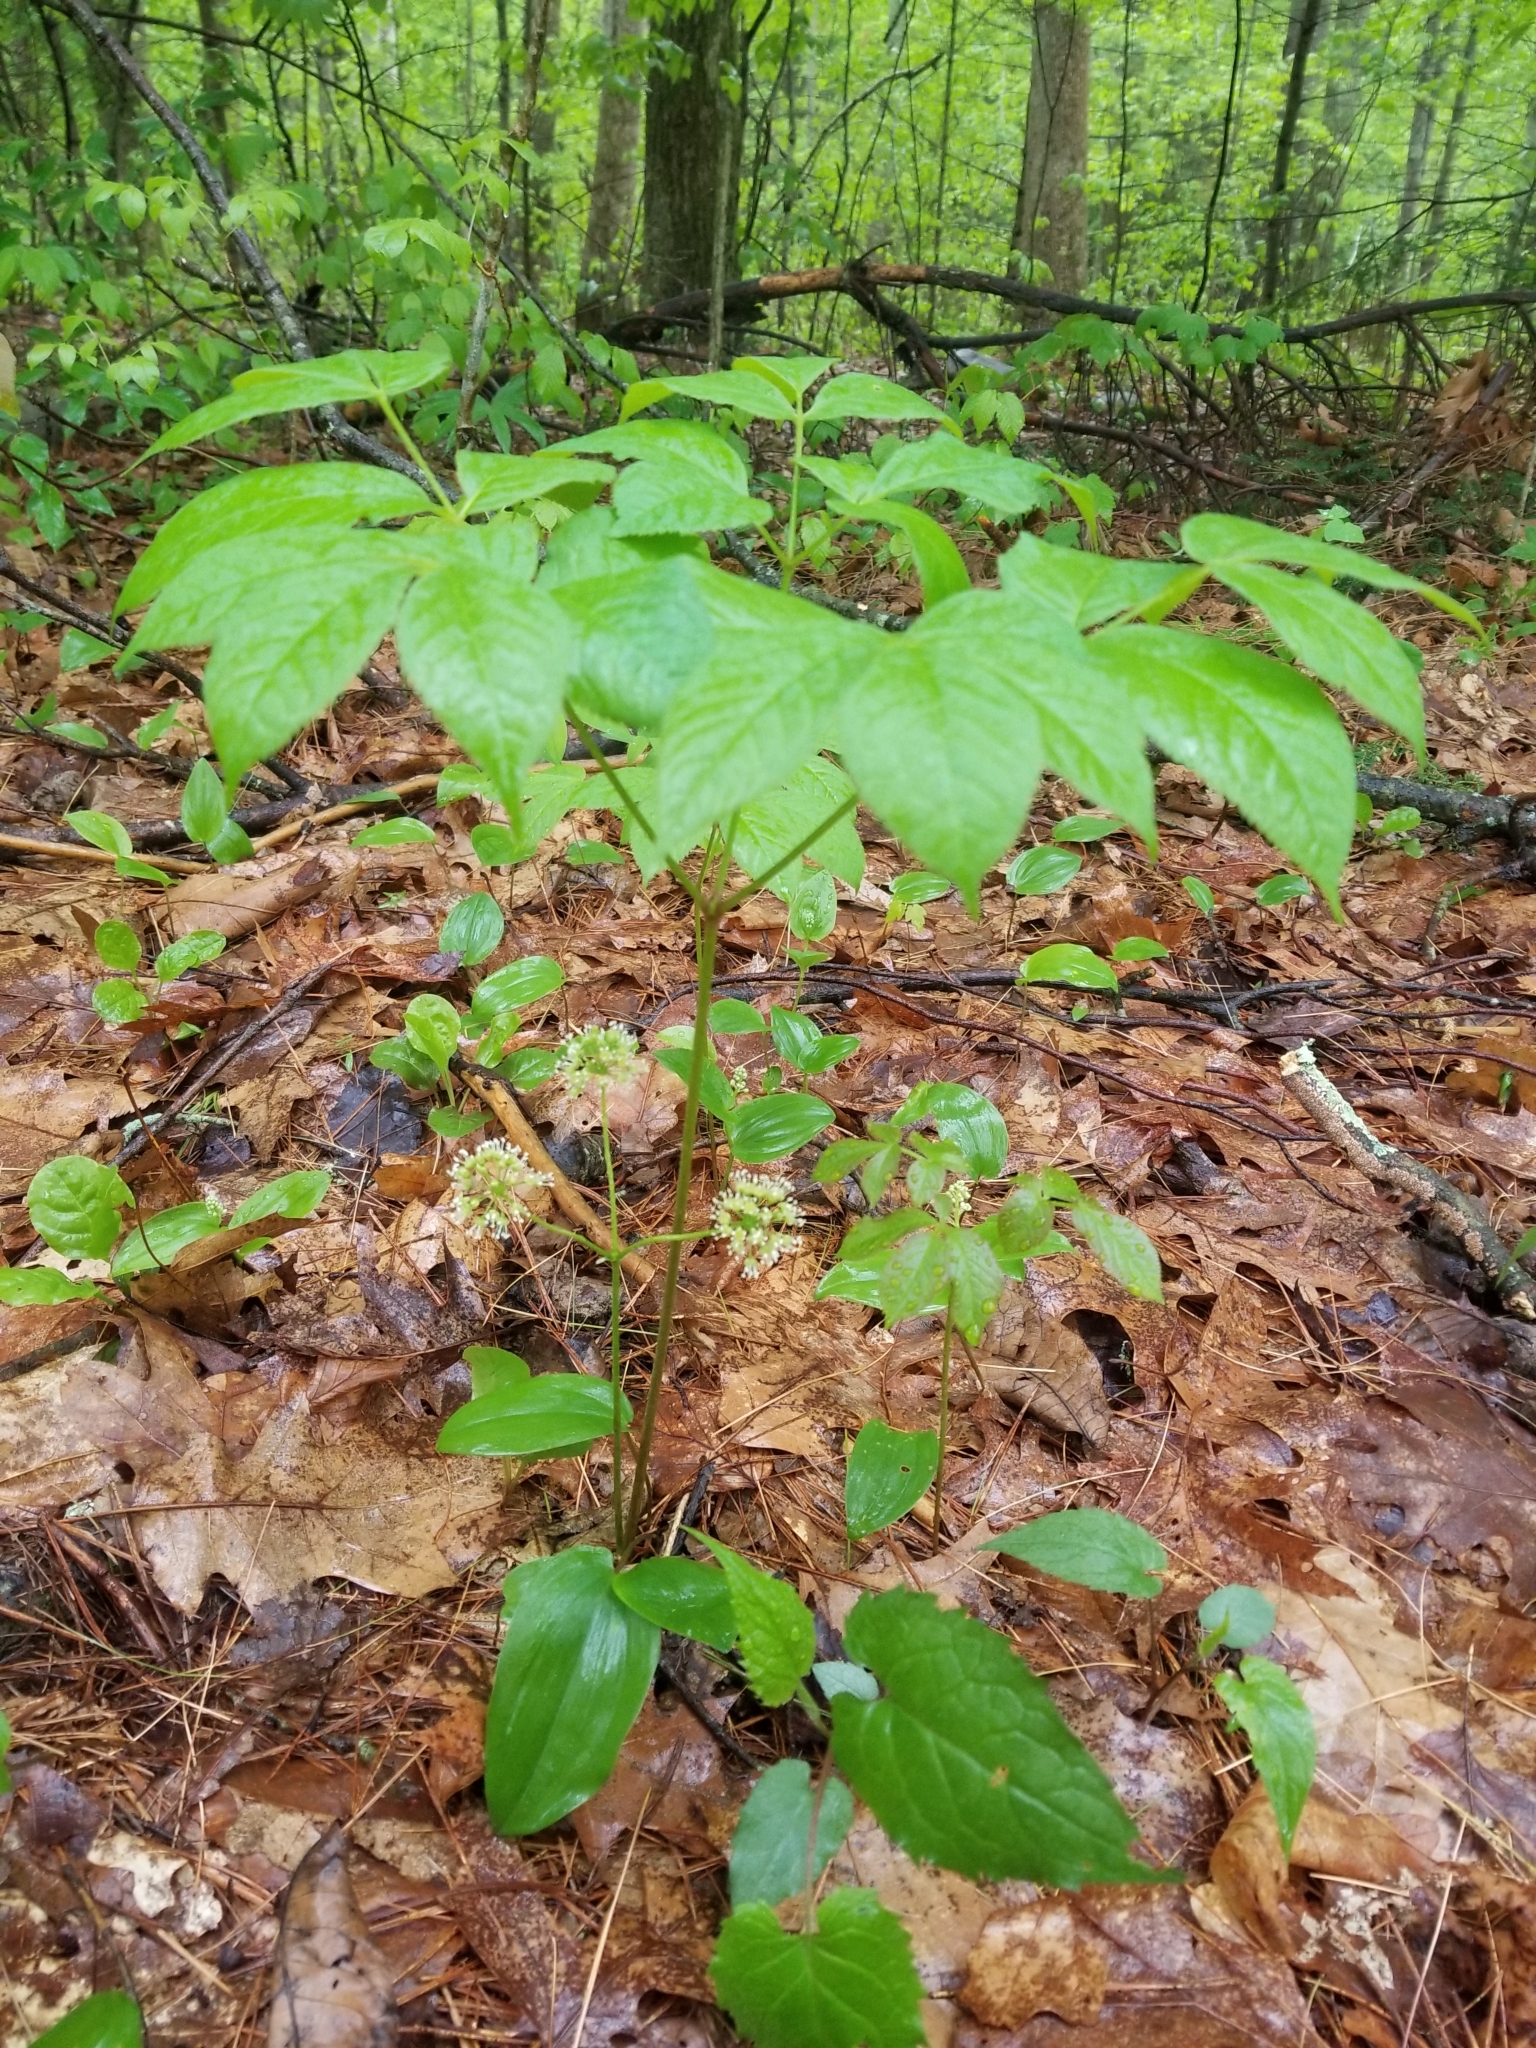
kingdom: Plantae
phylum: Tracheophyta
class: Magnoliopsida
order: Apiales
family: Araliaceae
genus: Aralia
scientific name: Aralia nudicaulis
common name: Wild sarsaparilla
